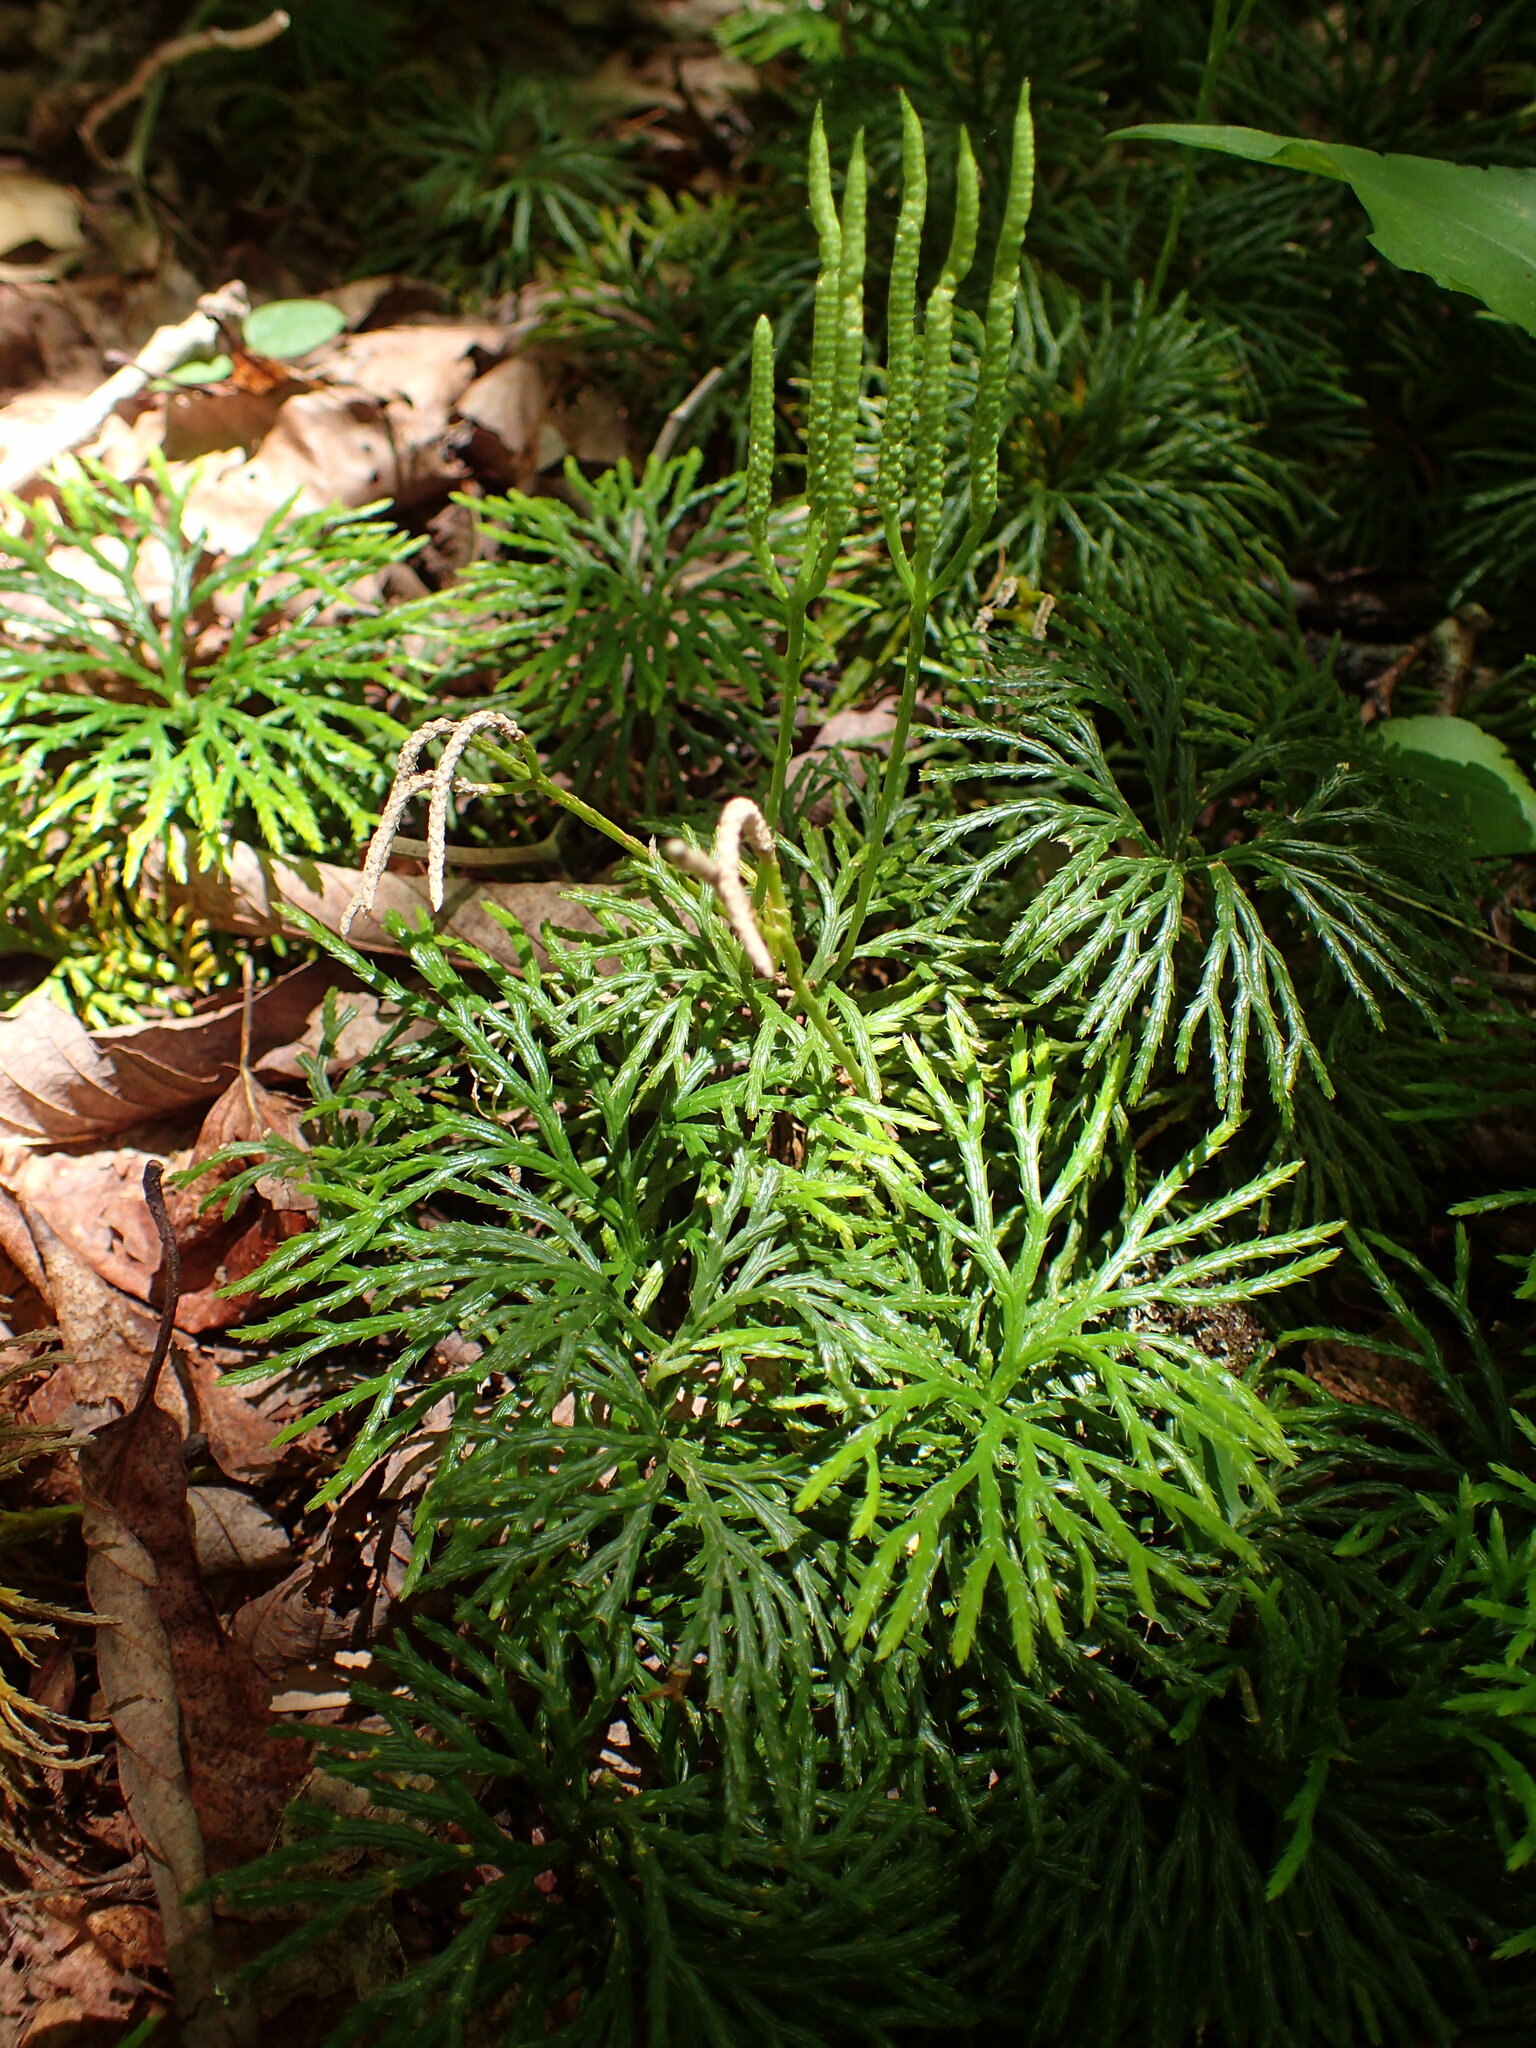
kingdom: Plantae
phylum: Tracheophyta
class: Lycopodiopsida
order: Lycopodiales
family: Lycopodiaceae
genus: Diphasiastrum
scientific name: Diphasiastrum digitatum
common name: Southern running-pine
